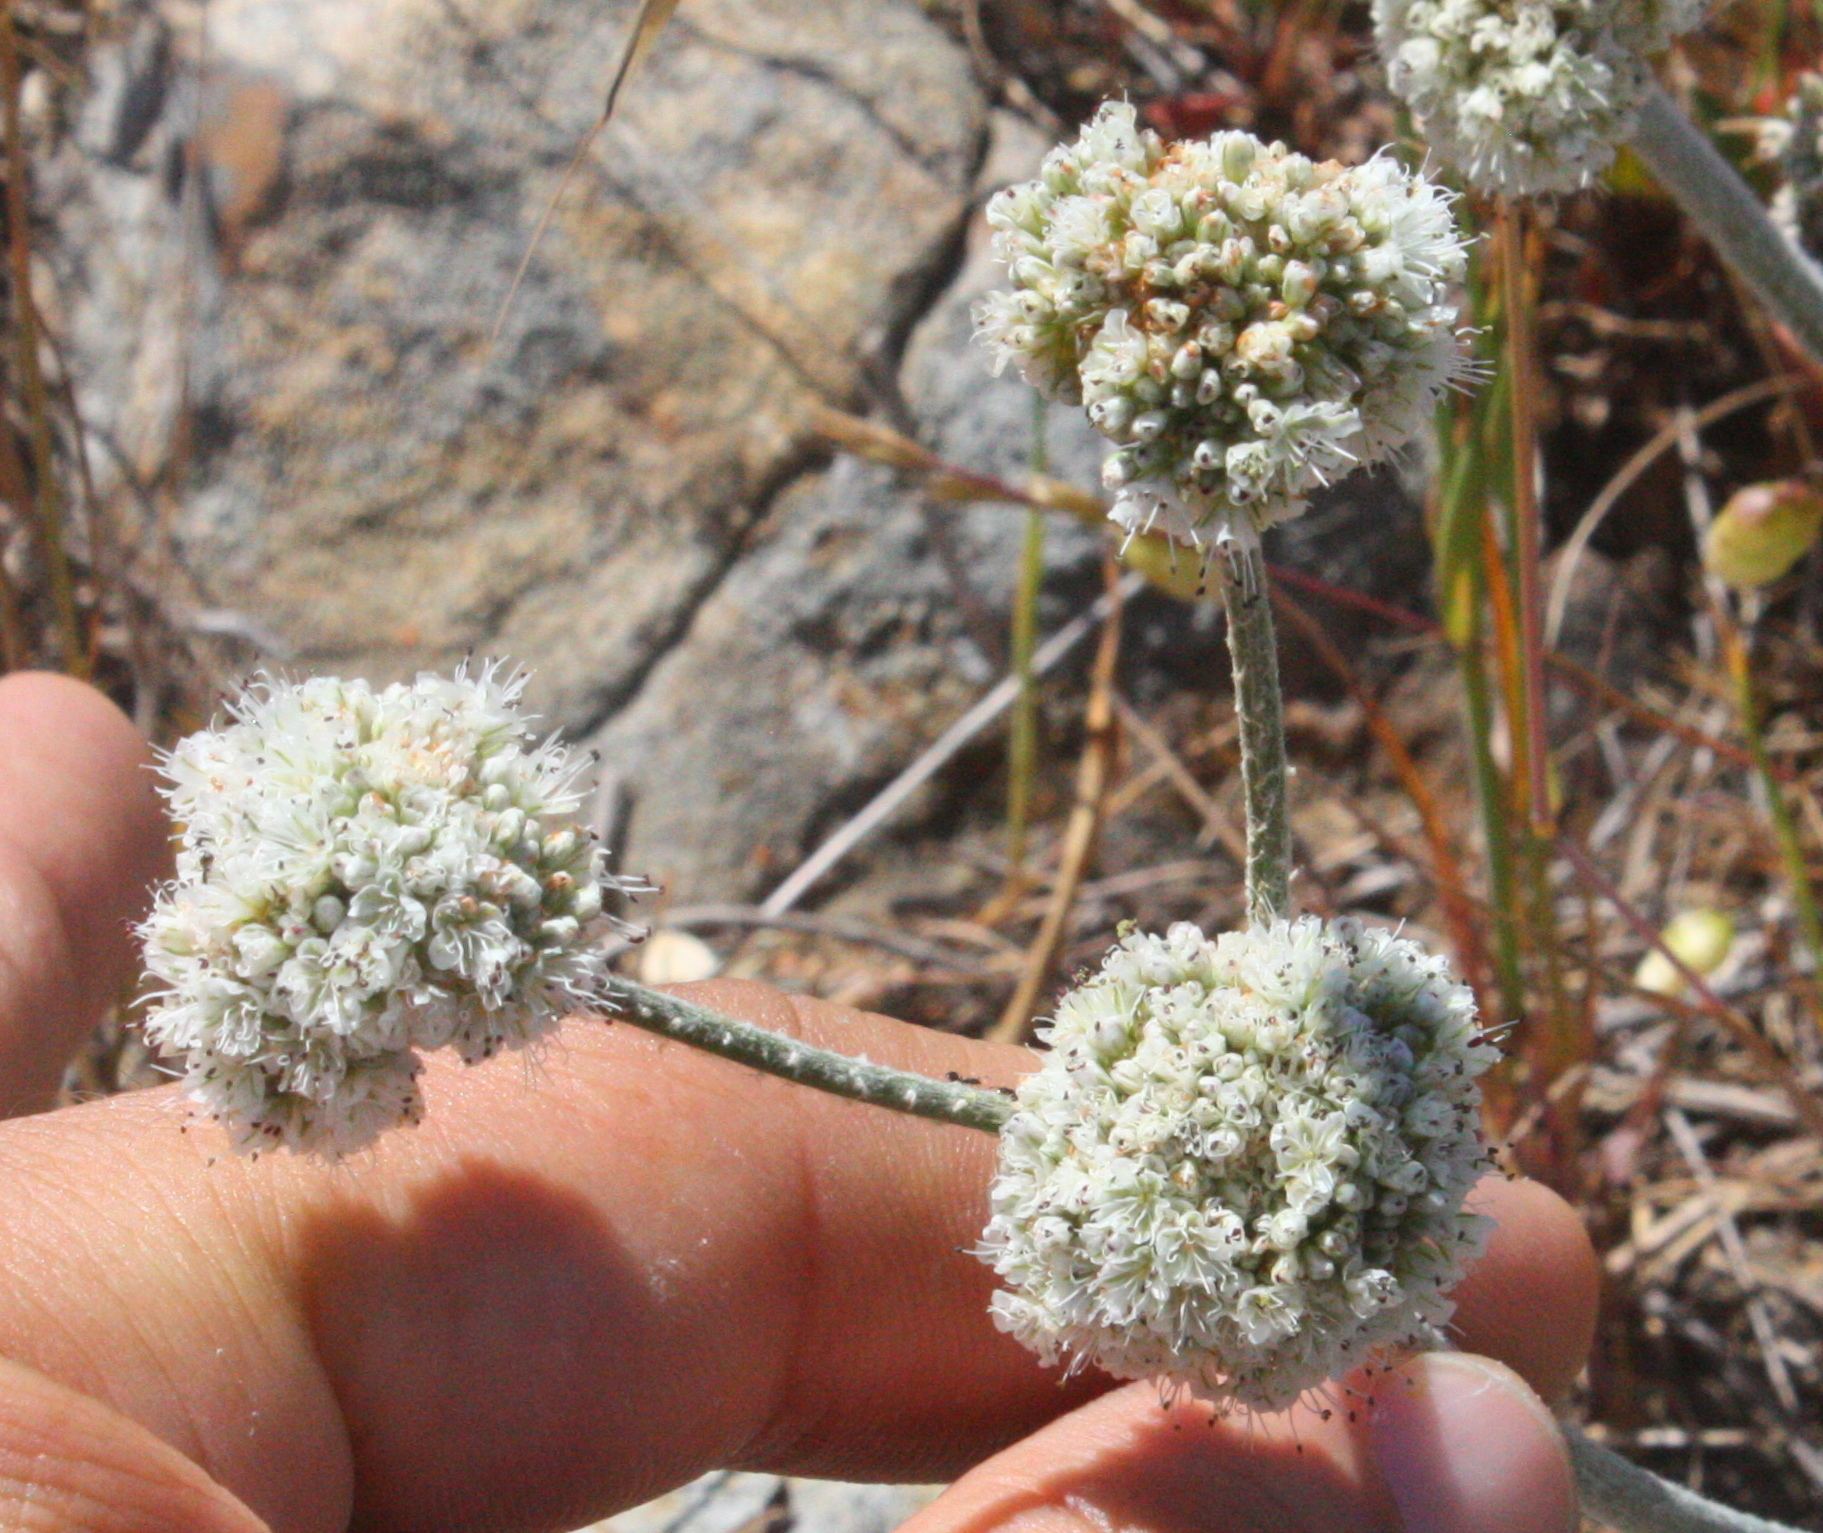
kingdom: Plantae
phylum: Tracheophyta
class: Magnoliopsida
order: Caryophyllales
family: Polygonaceae
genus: Eriogonum
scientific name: Eriogonum latifolium
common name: Seaside wild buckwheat
